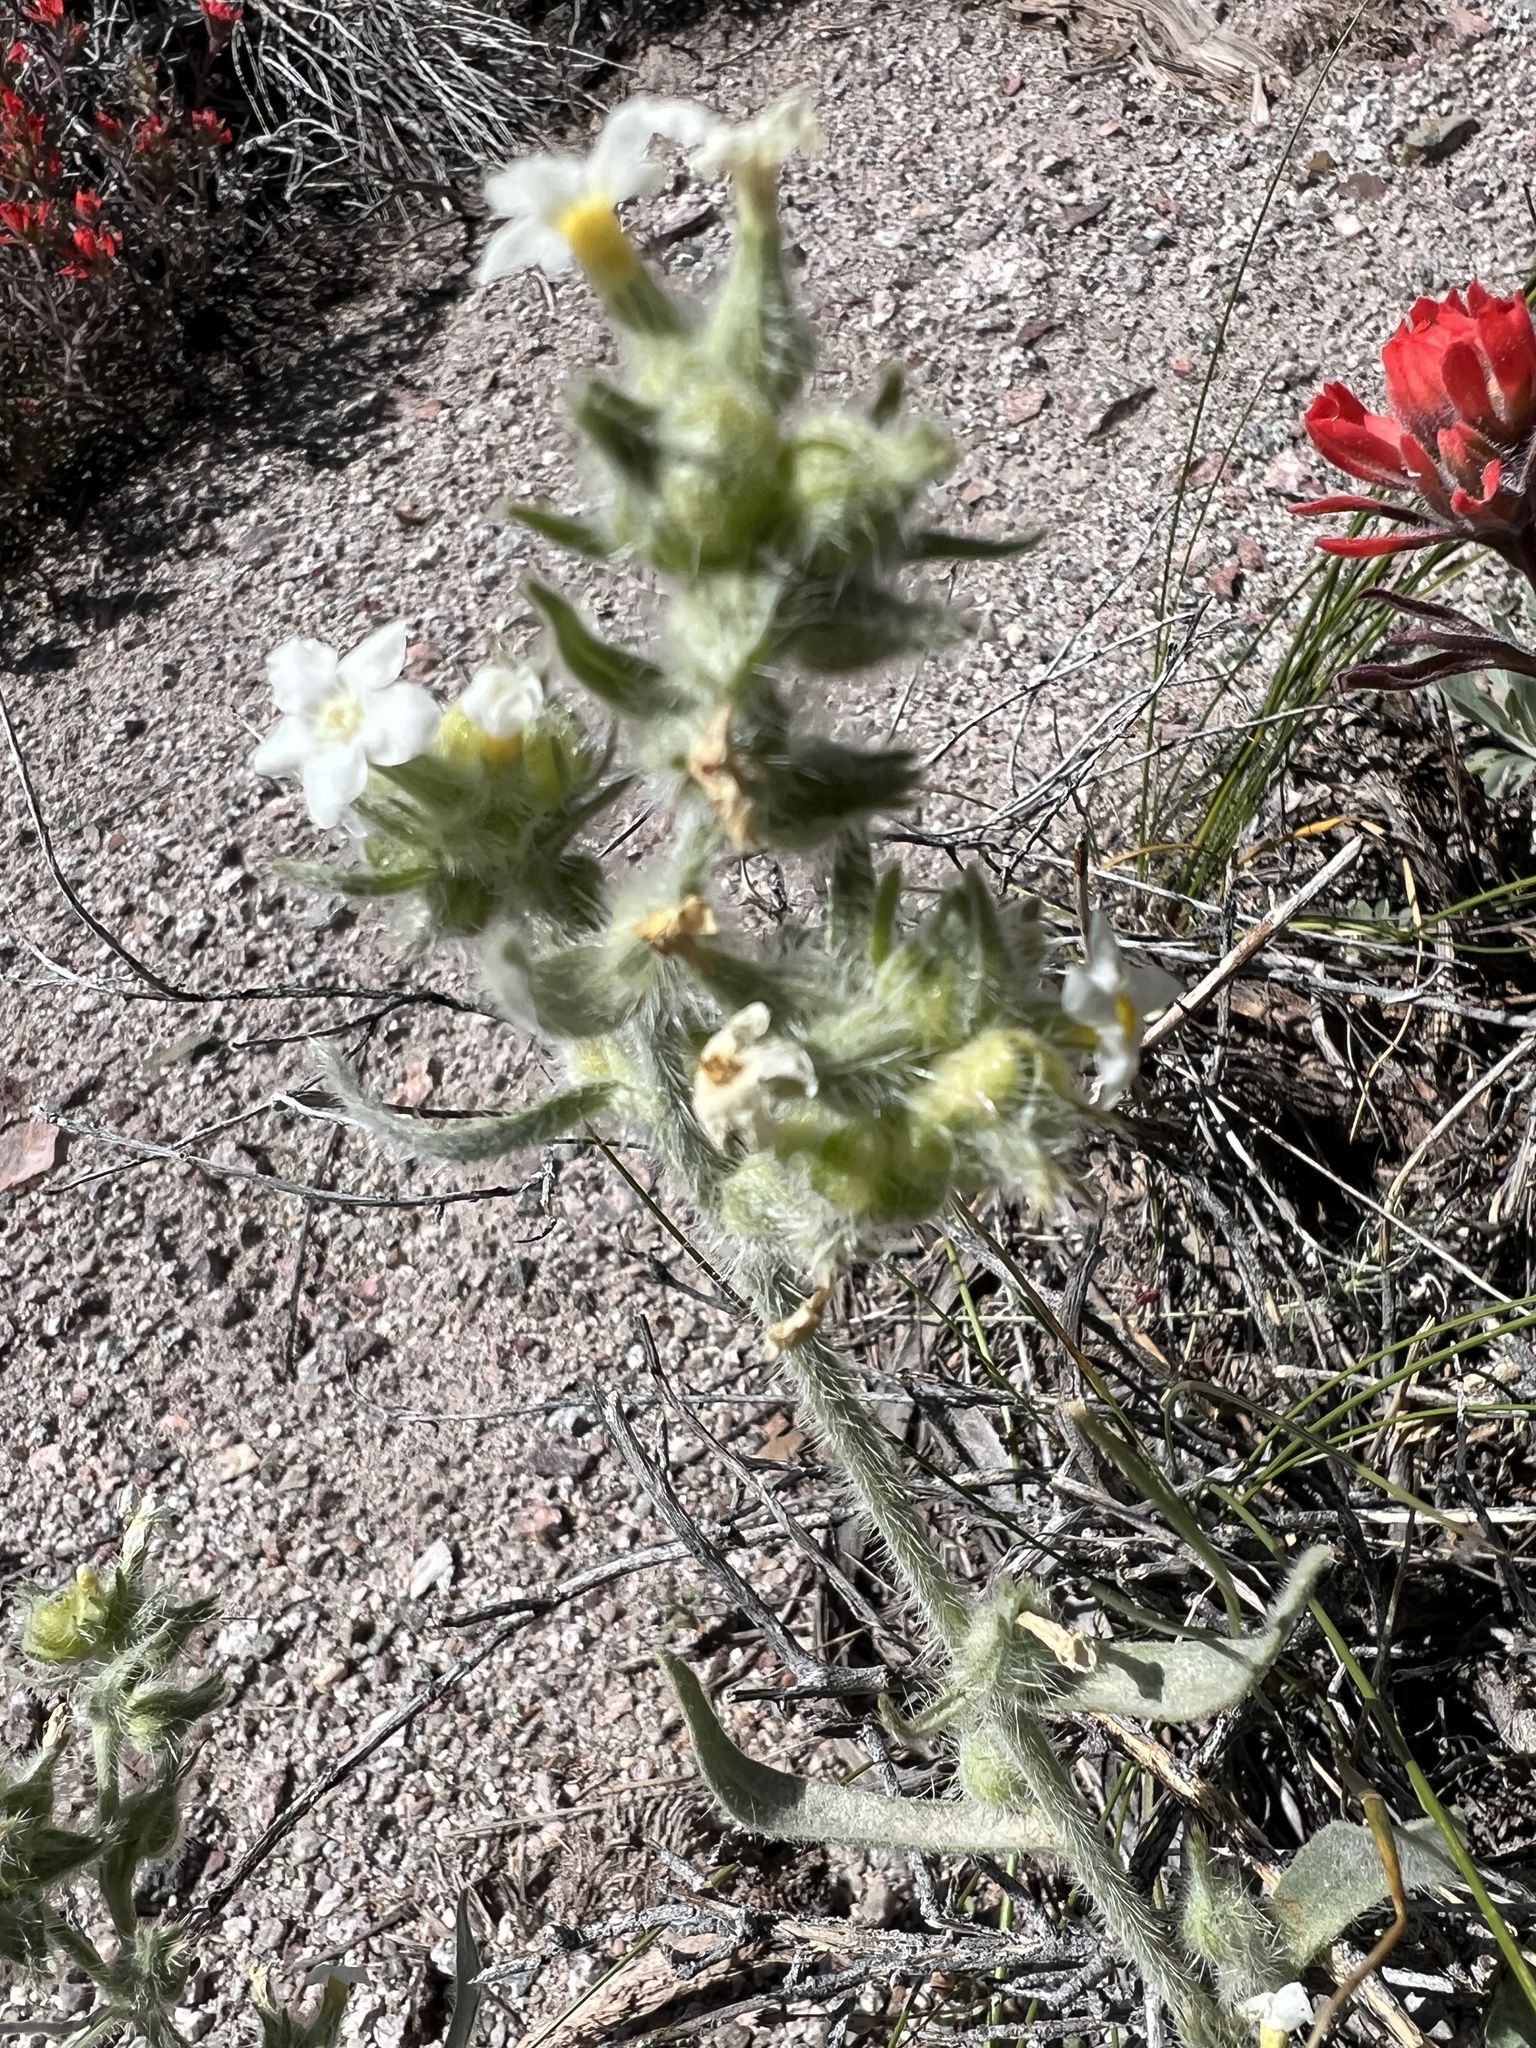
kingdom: Plantae
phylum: Tracheophyta
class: Magnoliopsida
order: Boraginales
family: Boraginaceae
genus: Oreocarya
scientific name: Oreocarya flavoculata
